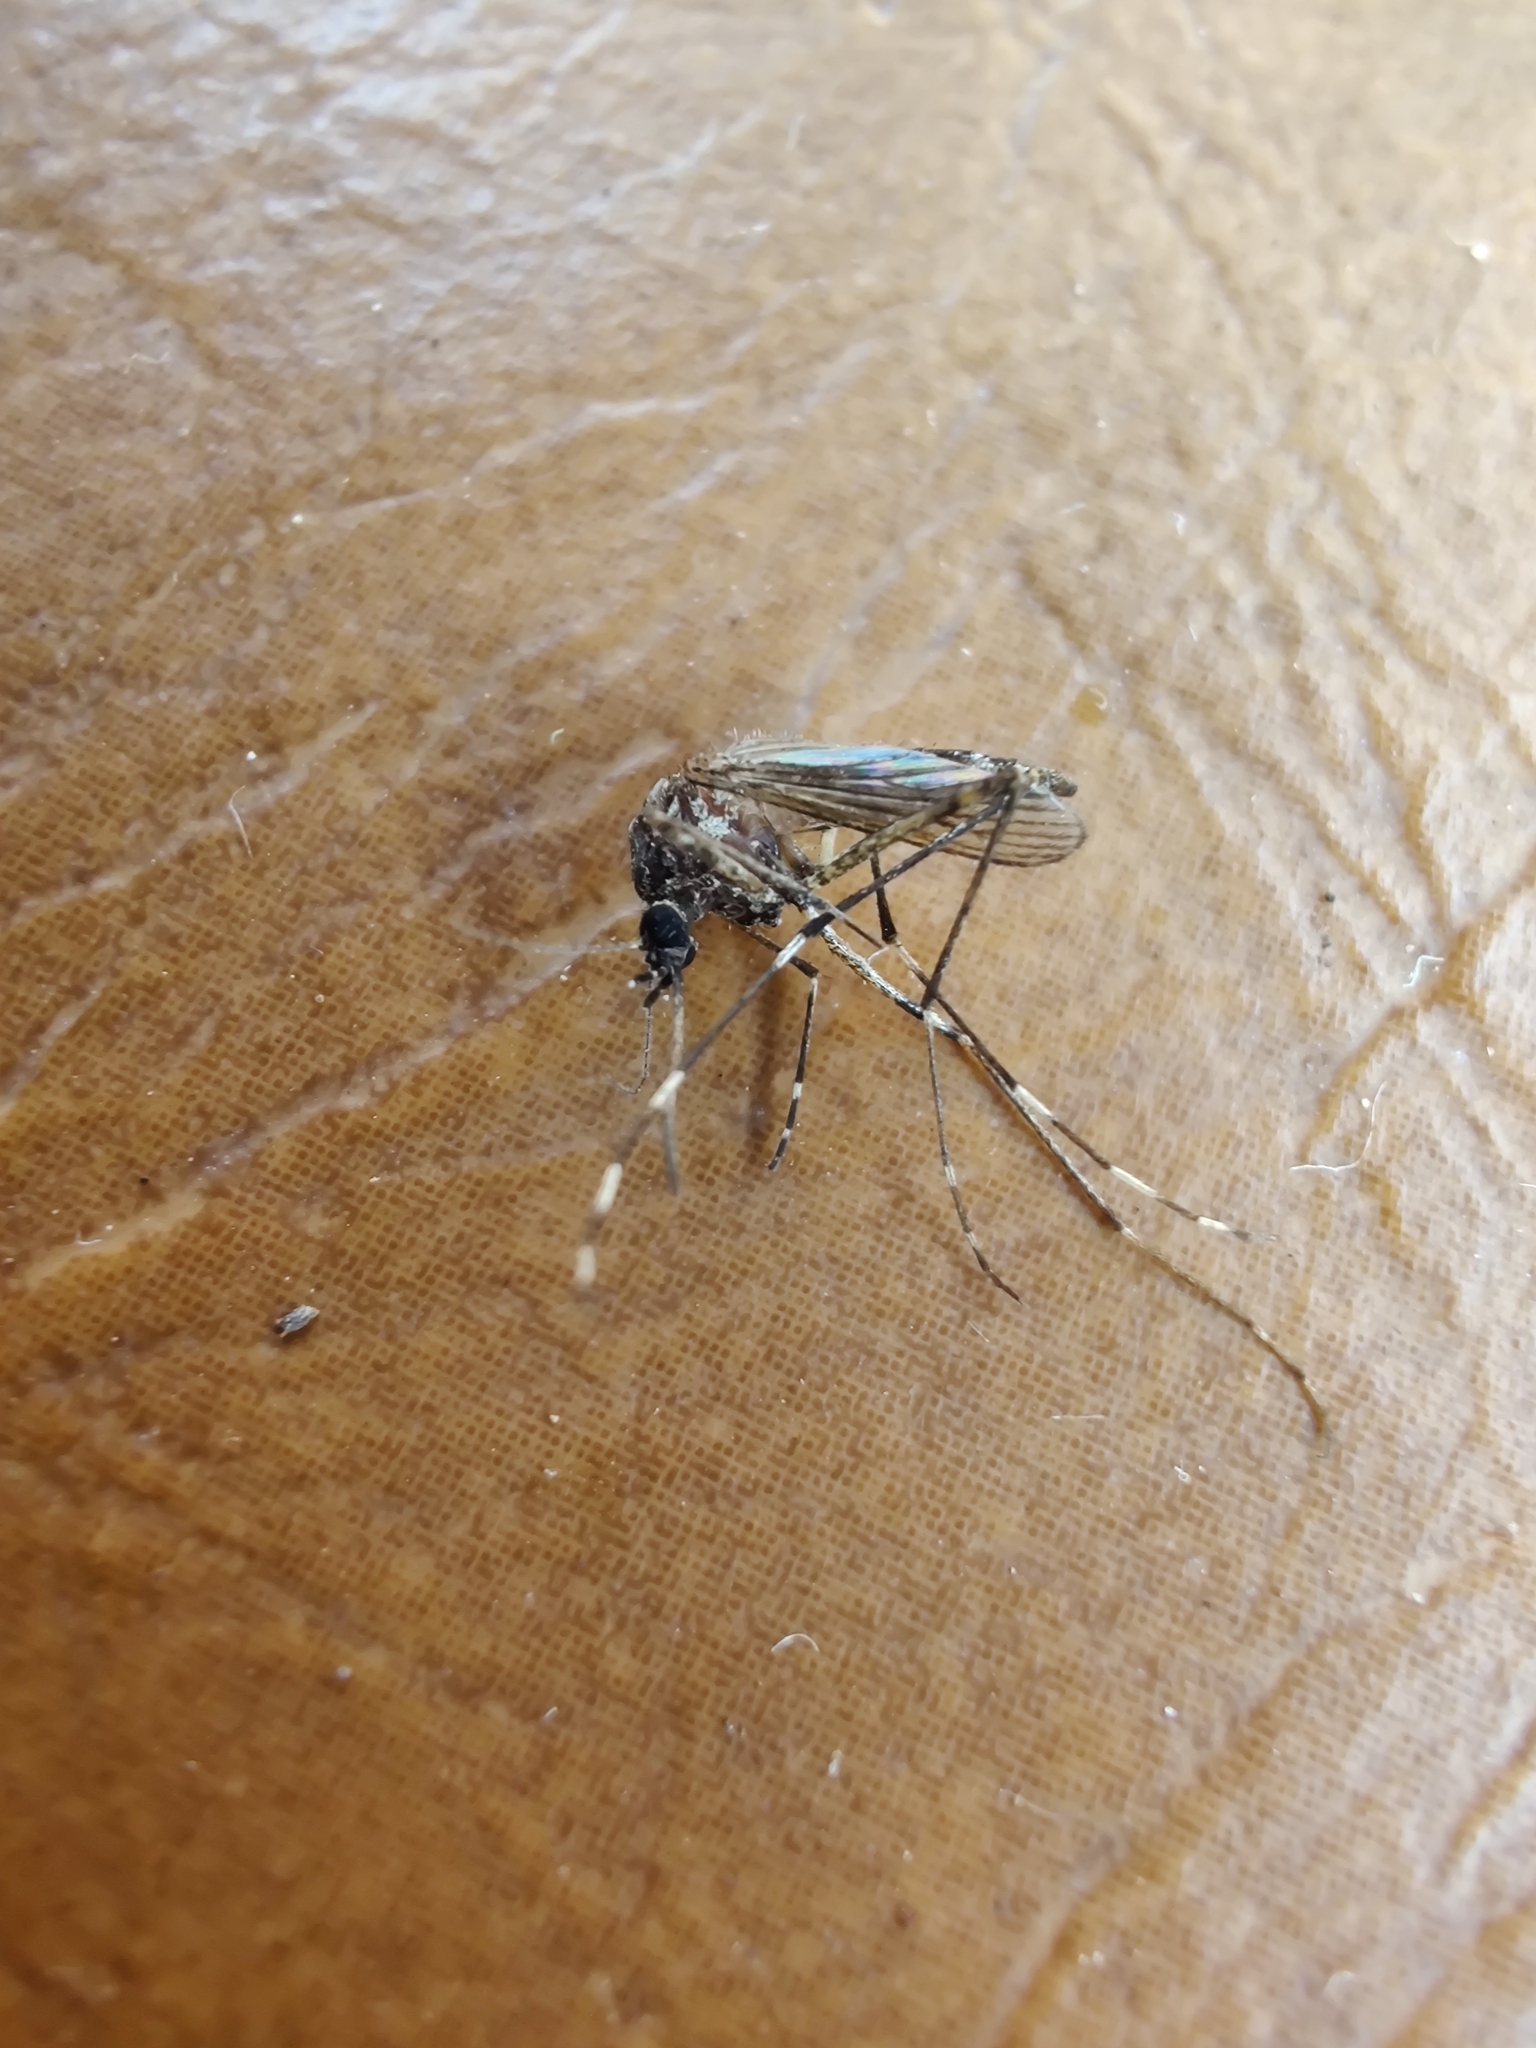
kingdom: Animalia
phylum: Arthropoda
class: Insecta
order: Diptera
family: Culicidae
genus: Aedes
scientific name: Aedes alboannulatus
